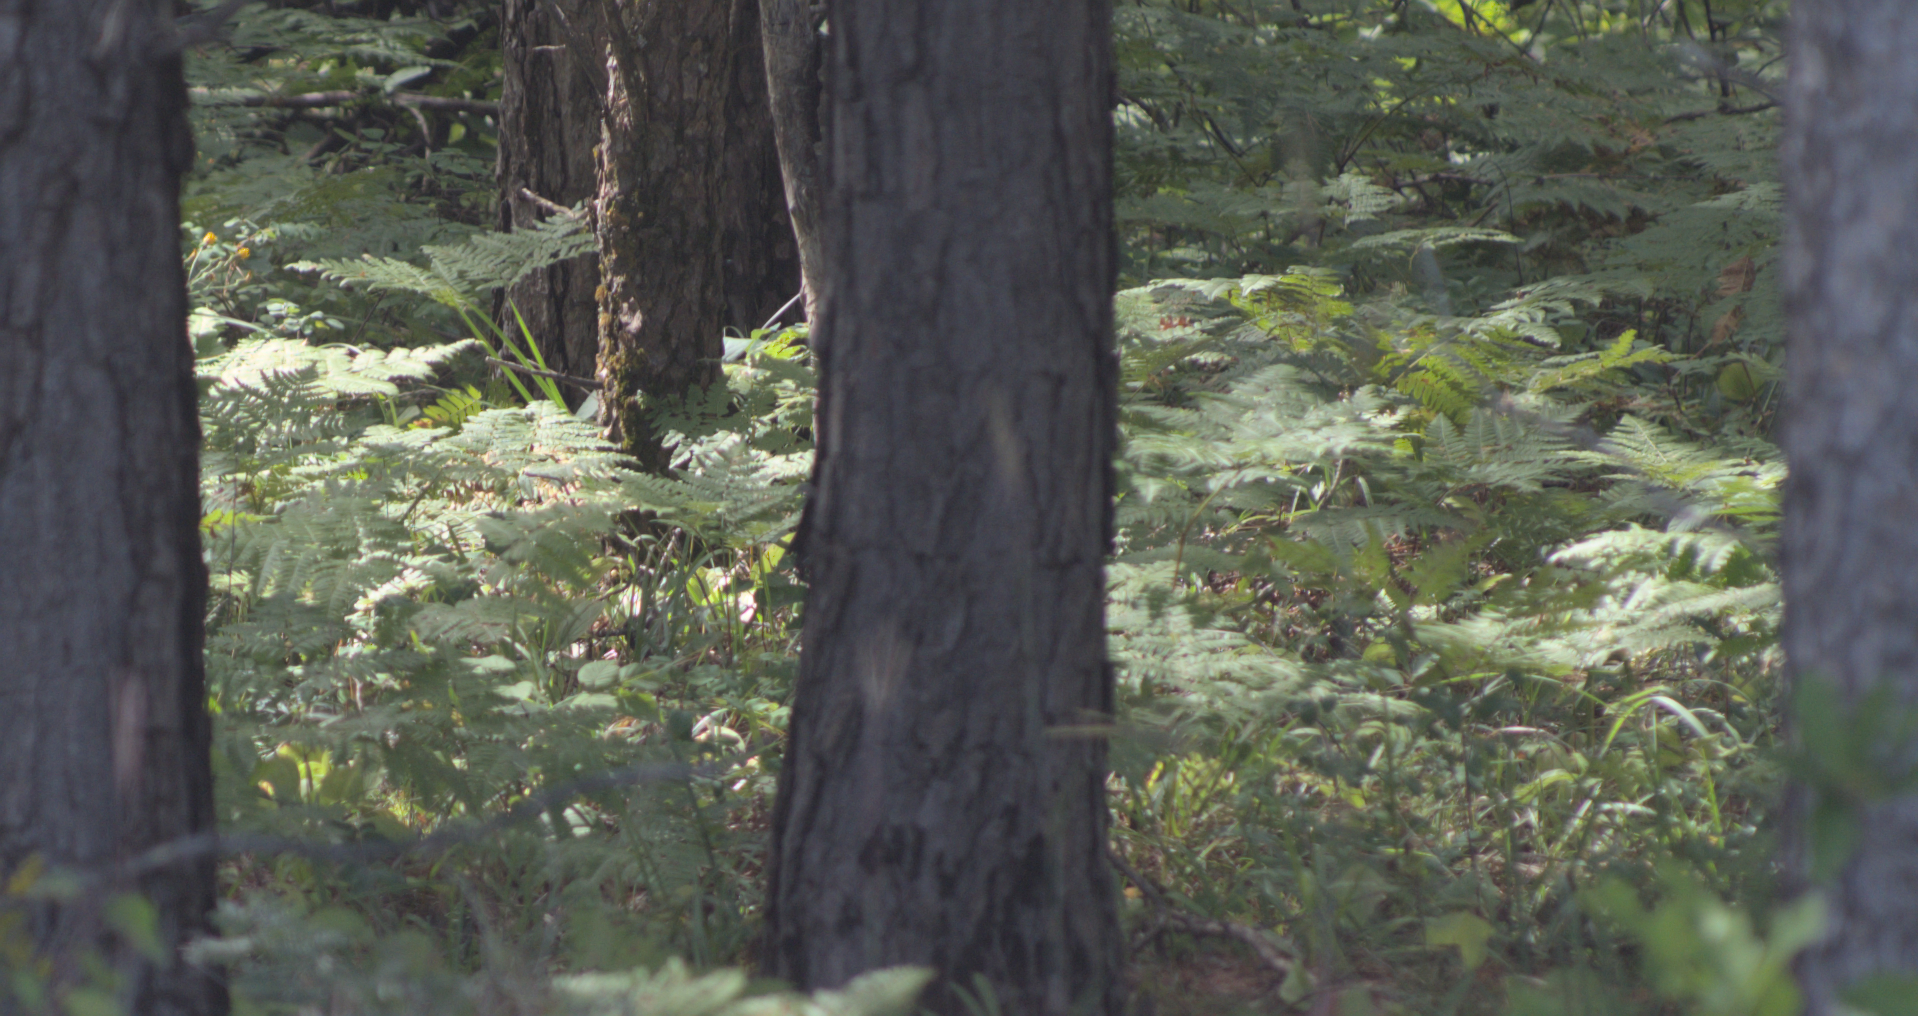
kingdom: Plantae
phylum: Tracheophyta
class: Polypodiopsida
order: Polypodiales
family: Dennstaedtiaceae
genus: Pteridium
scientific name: Pteridium aquilinum
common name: Bracken
